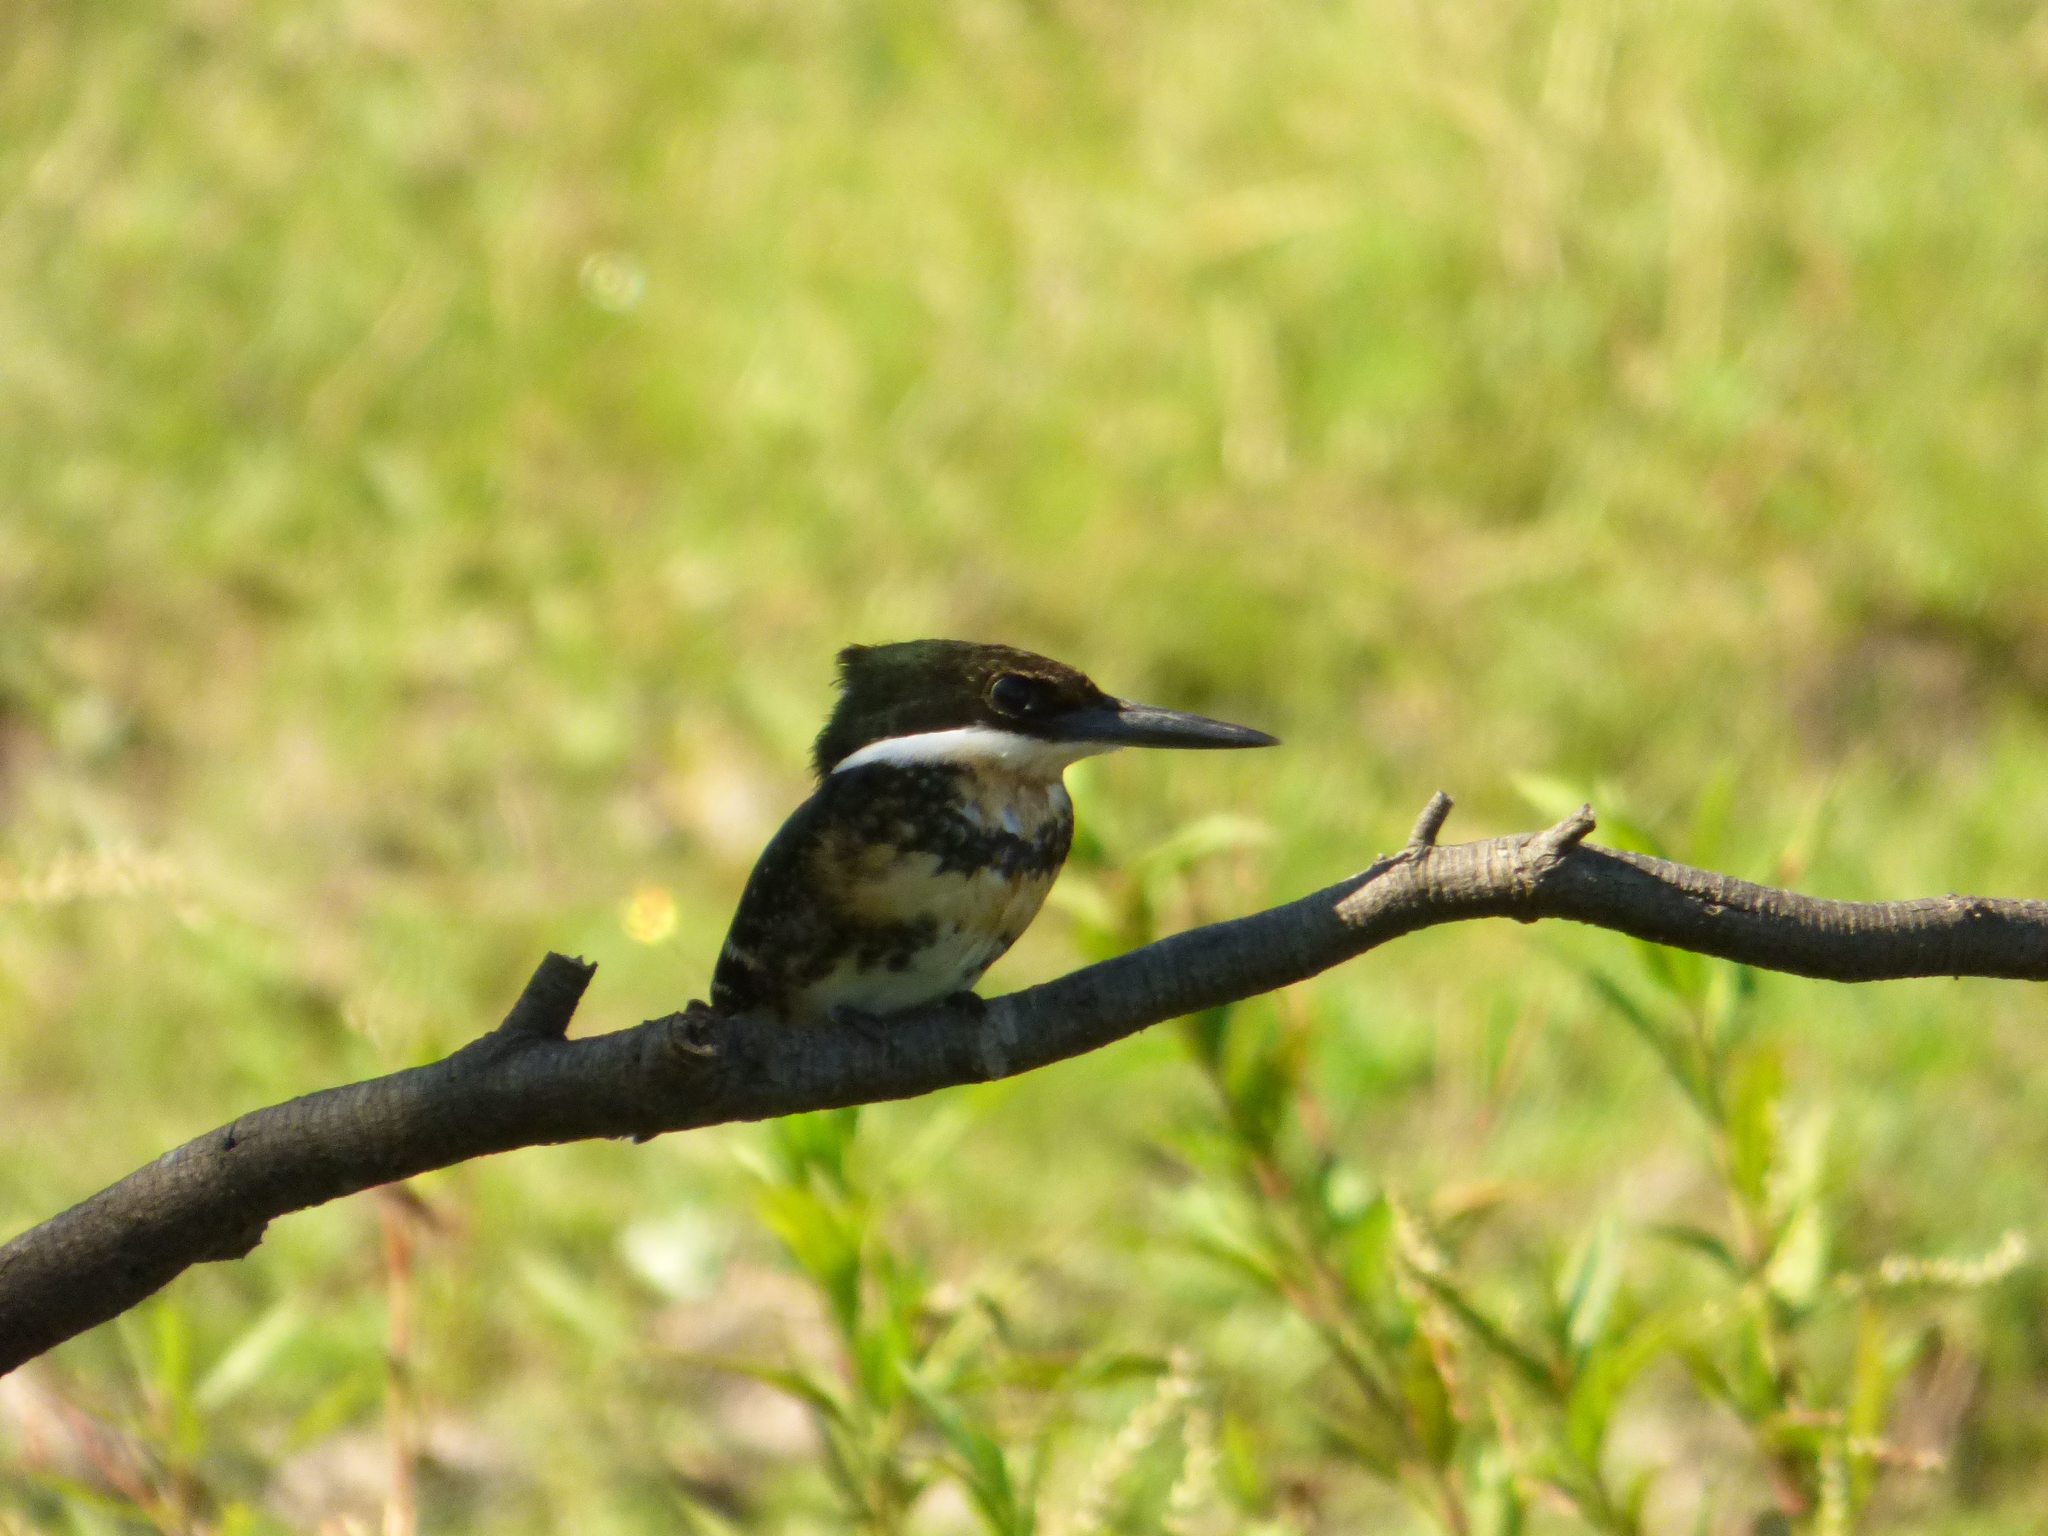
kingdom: Animalia
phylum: Chordata
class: Aves
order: Coraciiformes
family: Alcedinidae
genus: Chloroceryle
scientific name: Chloroceryle americana
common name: Green kingfisher
